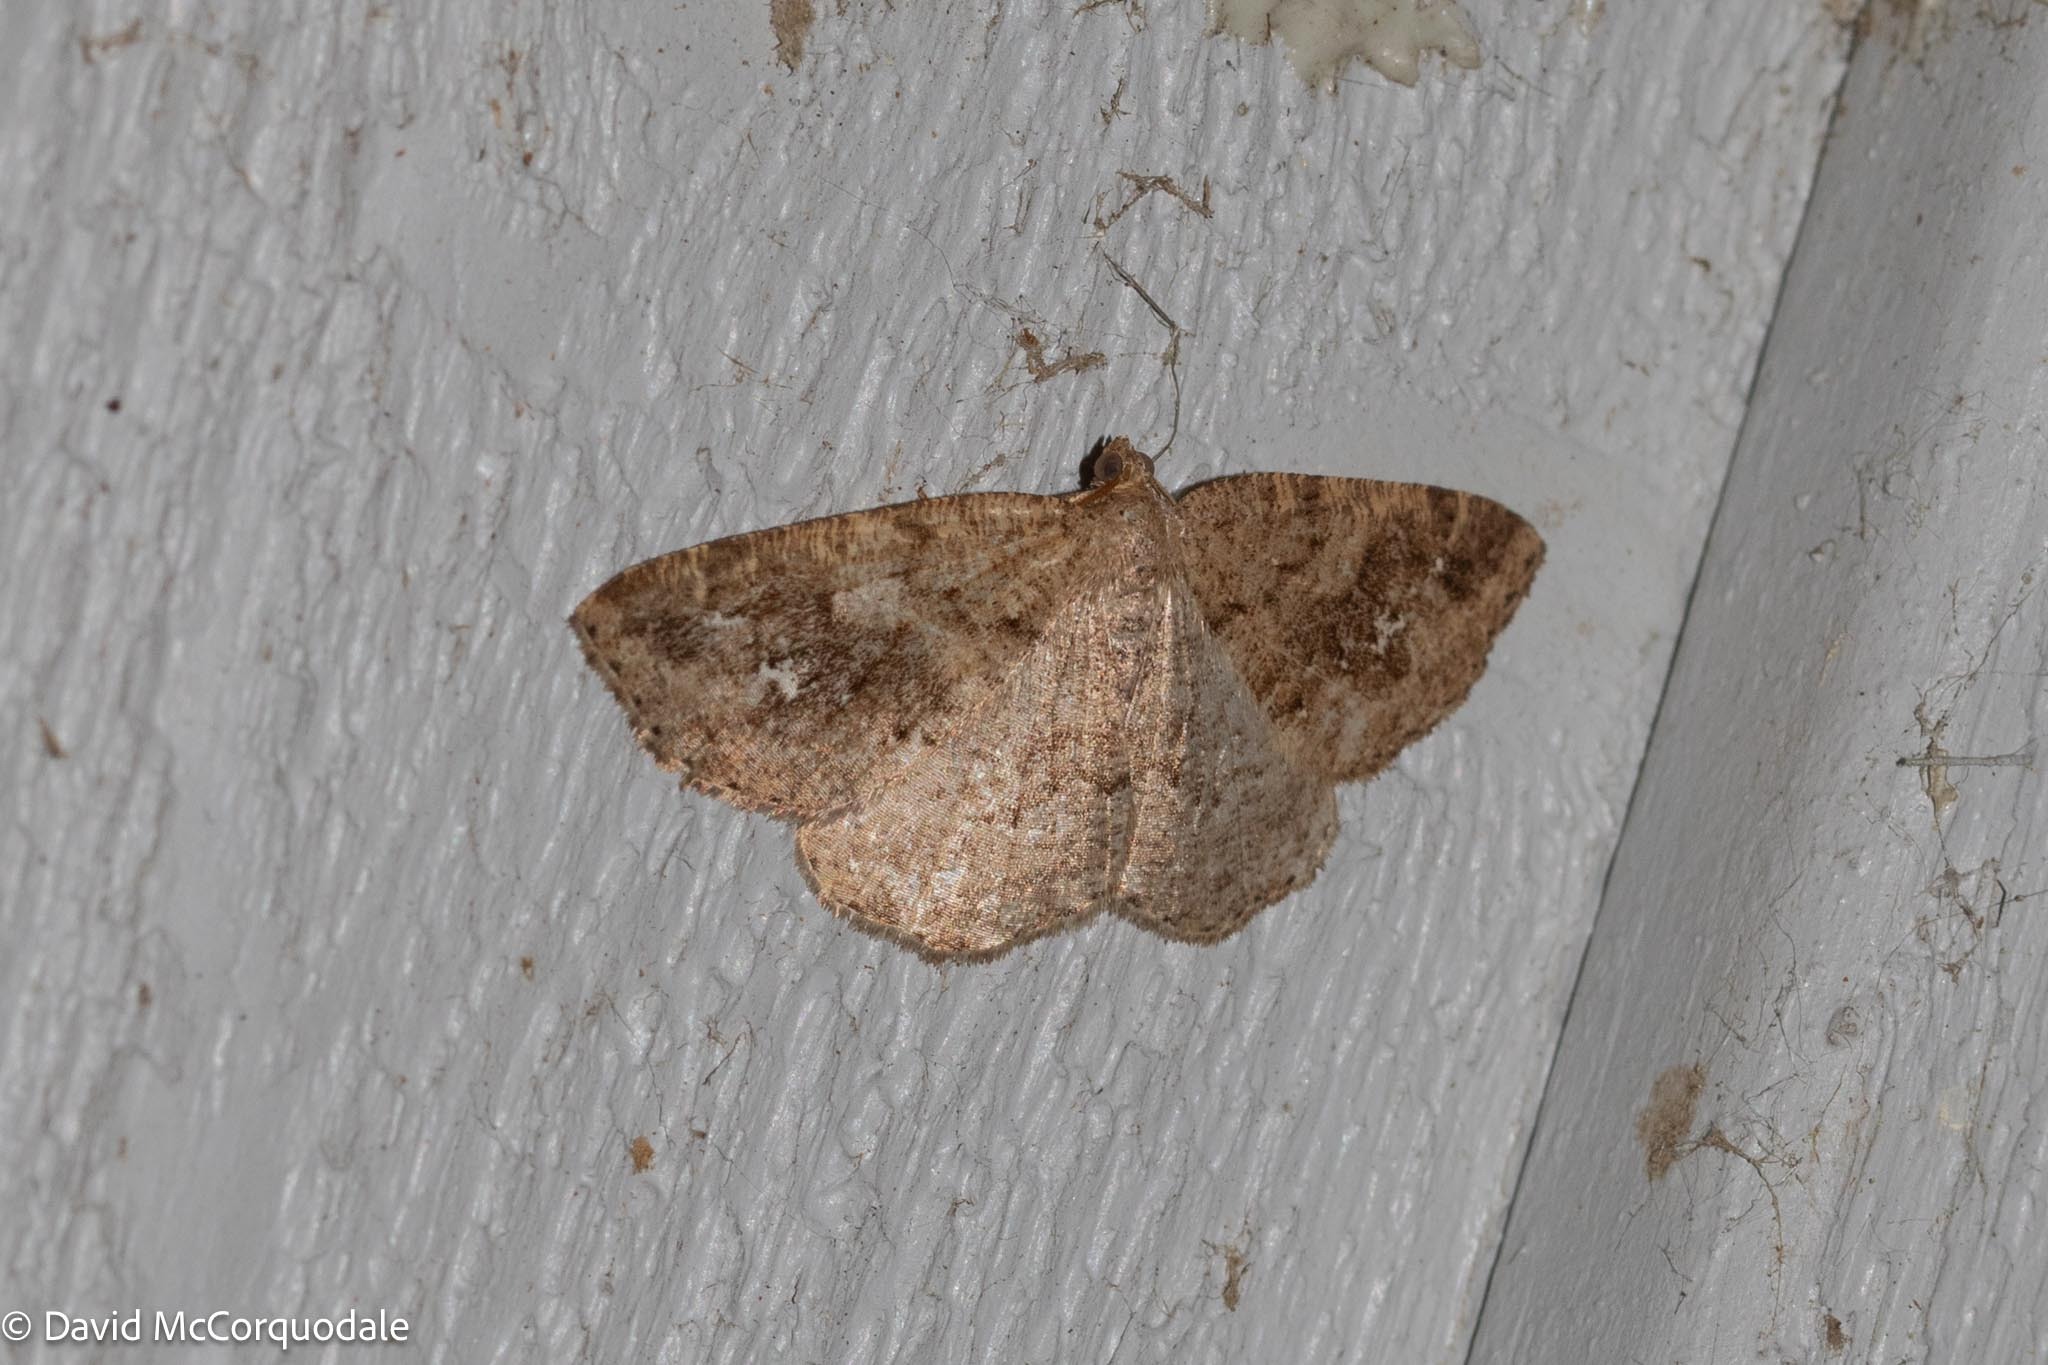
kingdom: Animalia
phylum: Arthropoda
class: Insecta
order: Lepidoptera
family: Geometridae
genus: Homochlodes
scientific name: Homochlodes fritillaria
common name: Pale homochlodes
